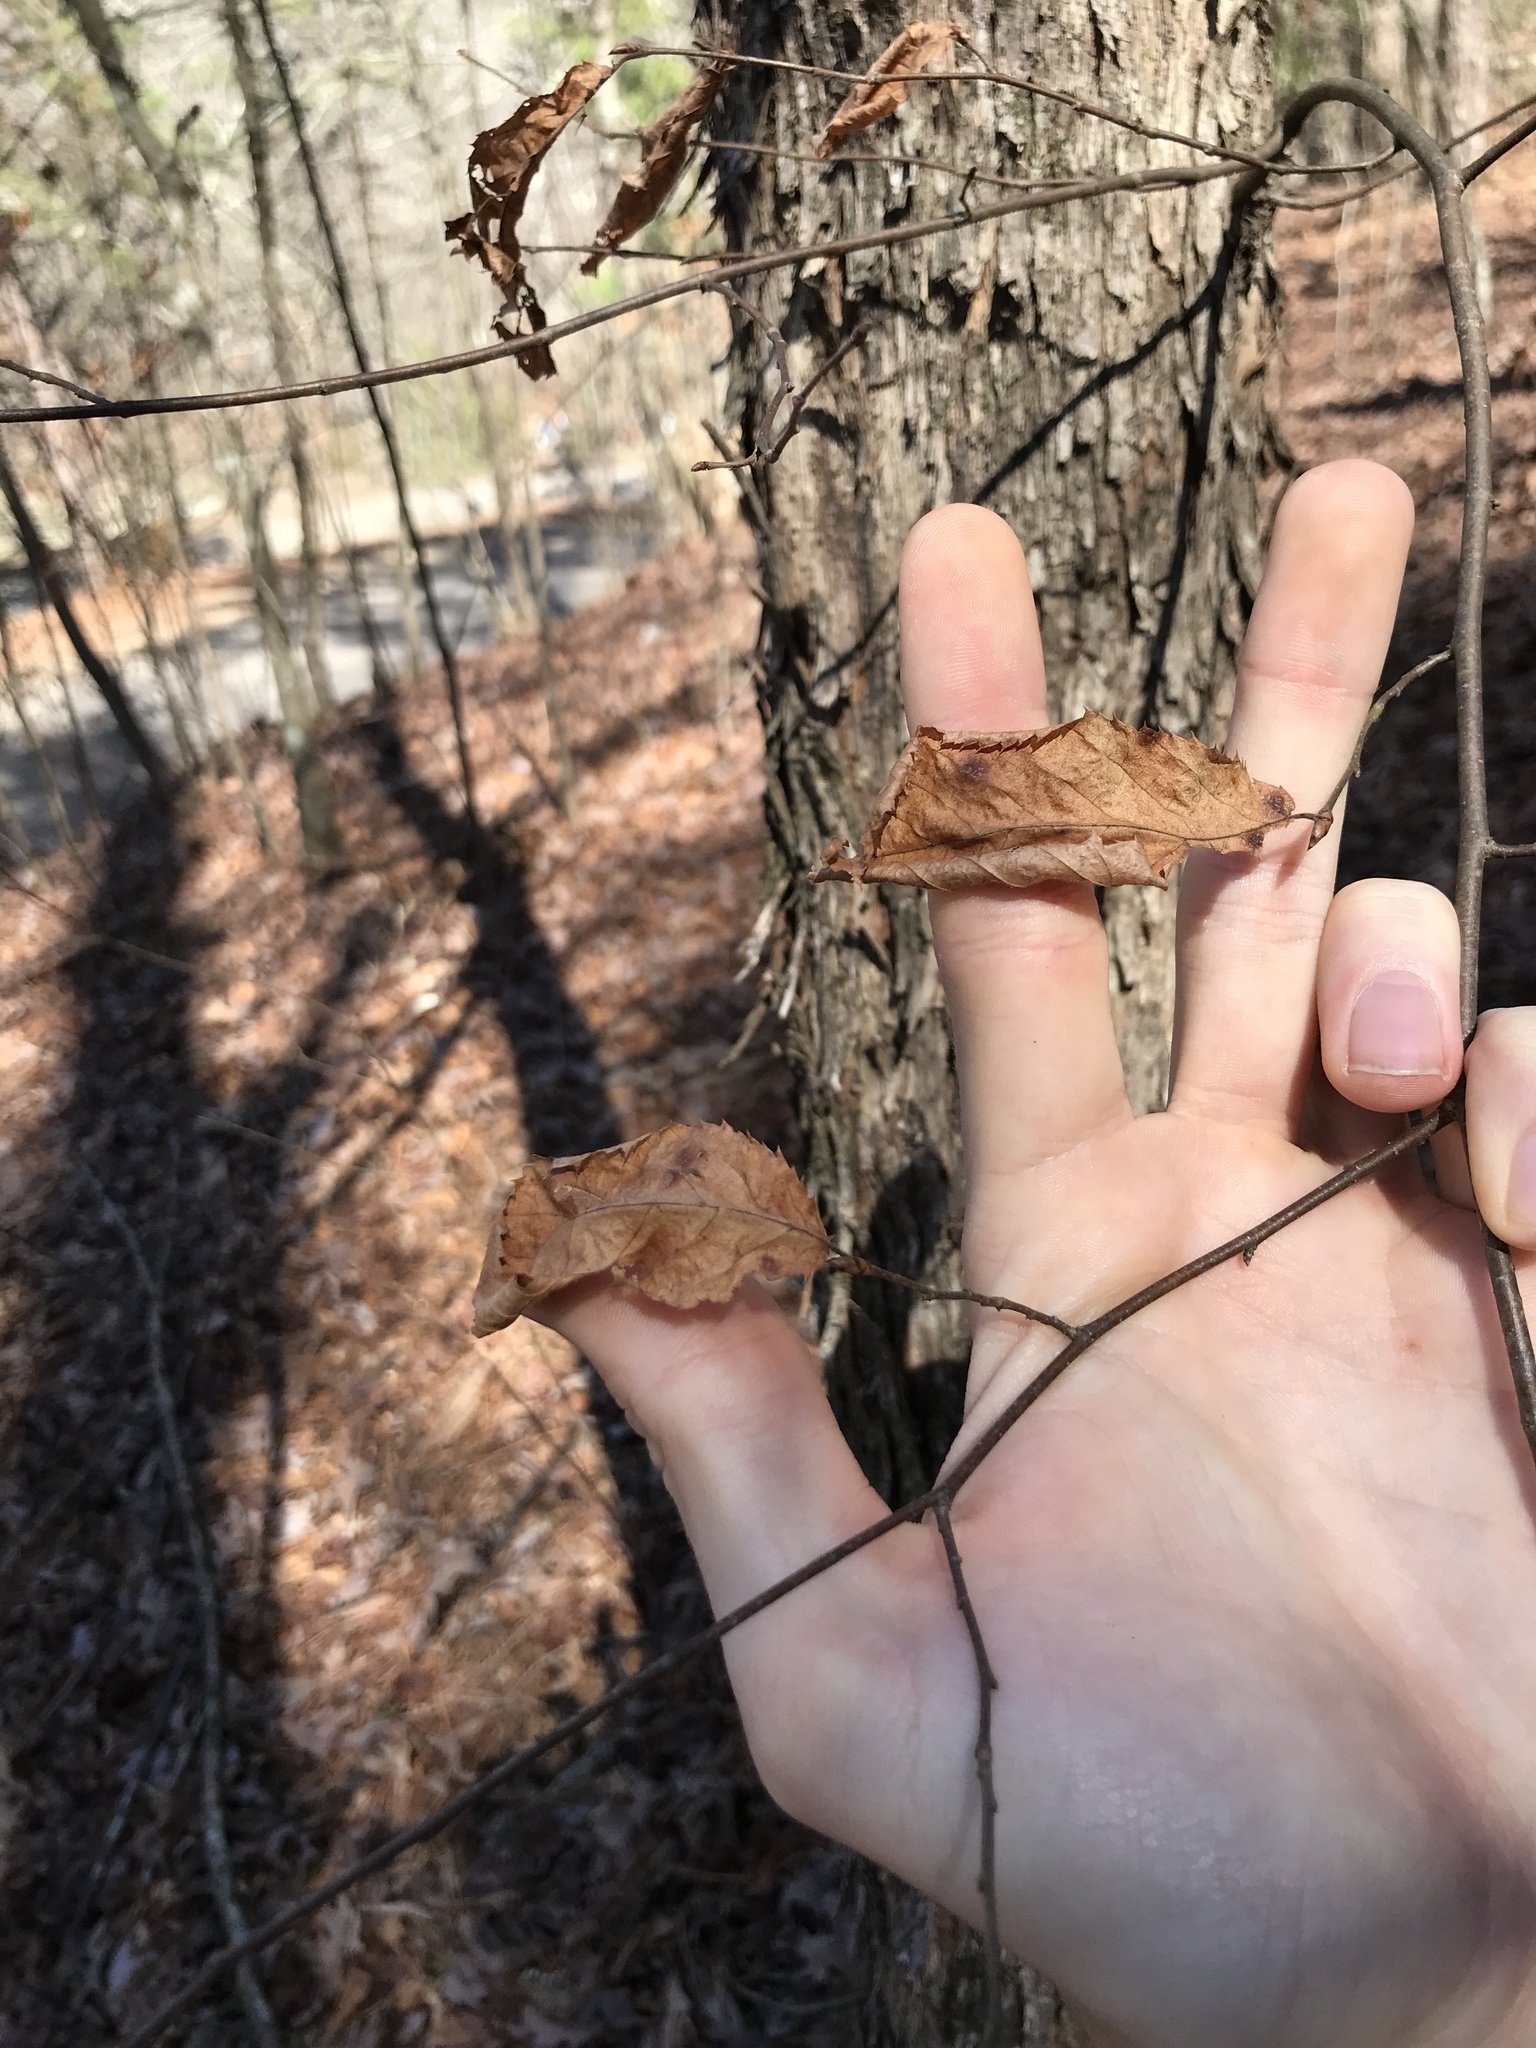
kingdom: Plantae
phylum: Tracheophyta
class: Magnoliopsida
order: Fagales
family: Betulaceae
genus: Ostrya
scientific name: Ostrya virginiana
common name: Ironwood
